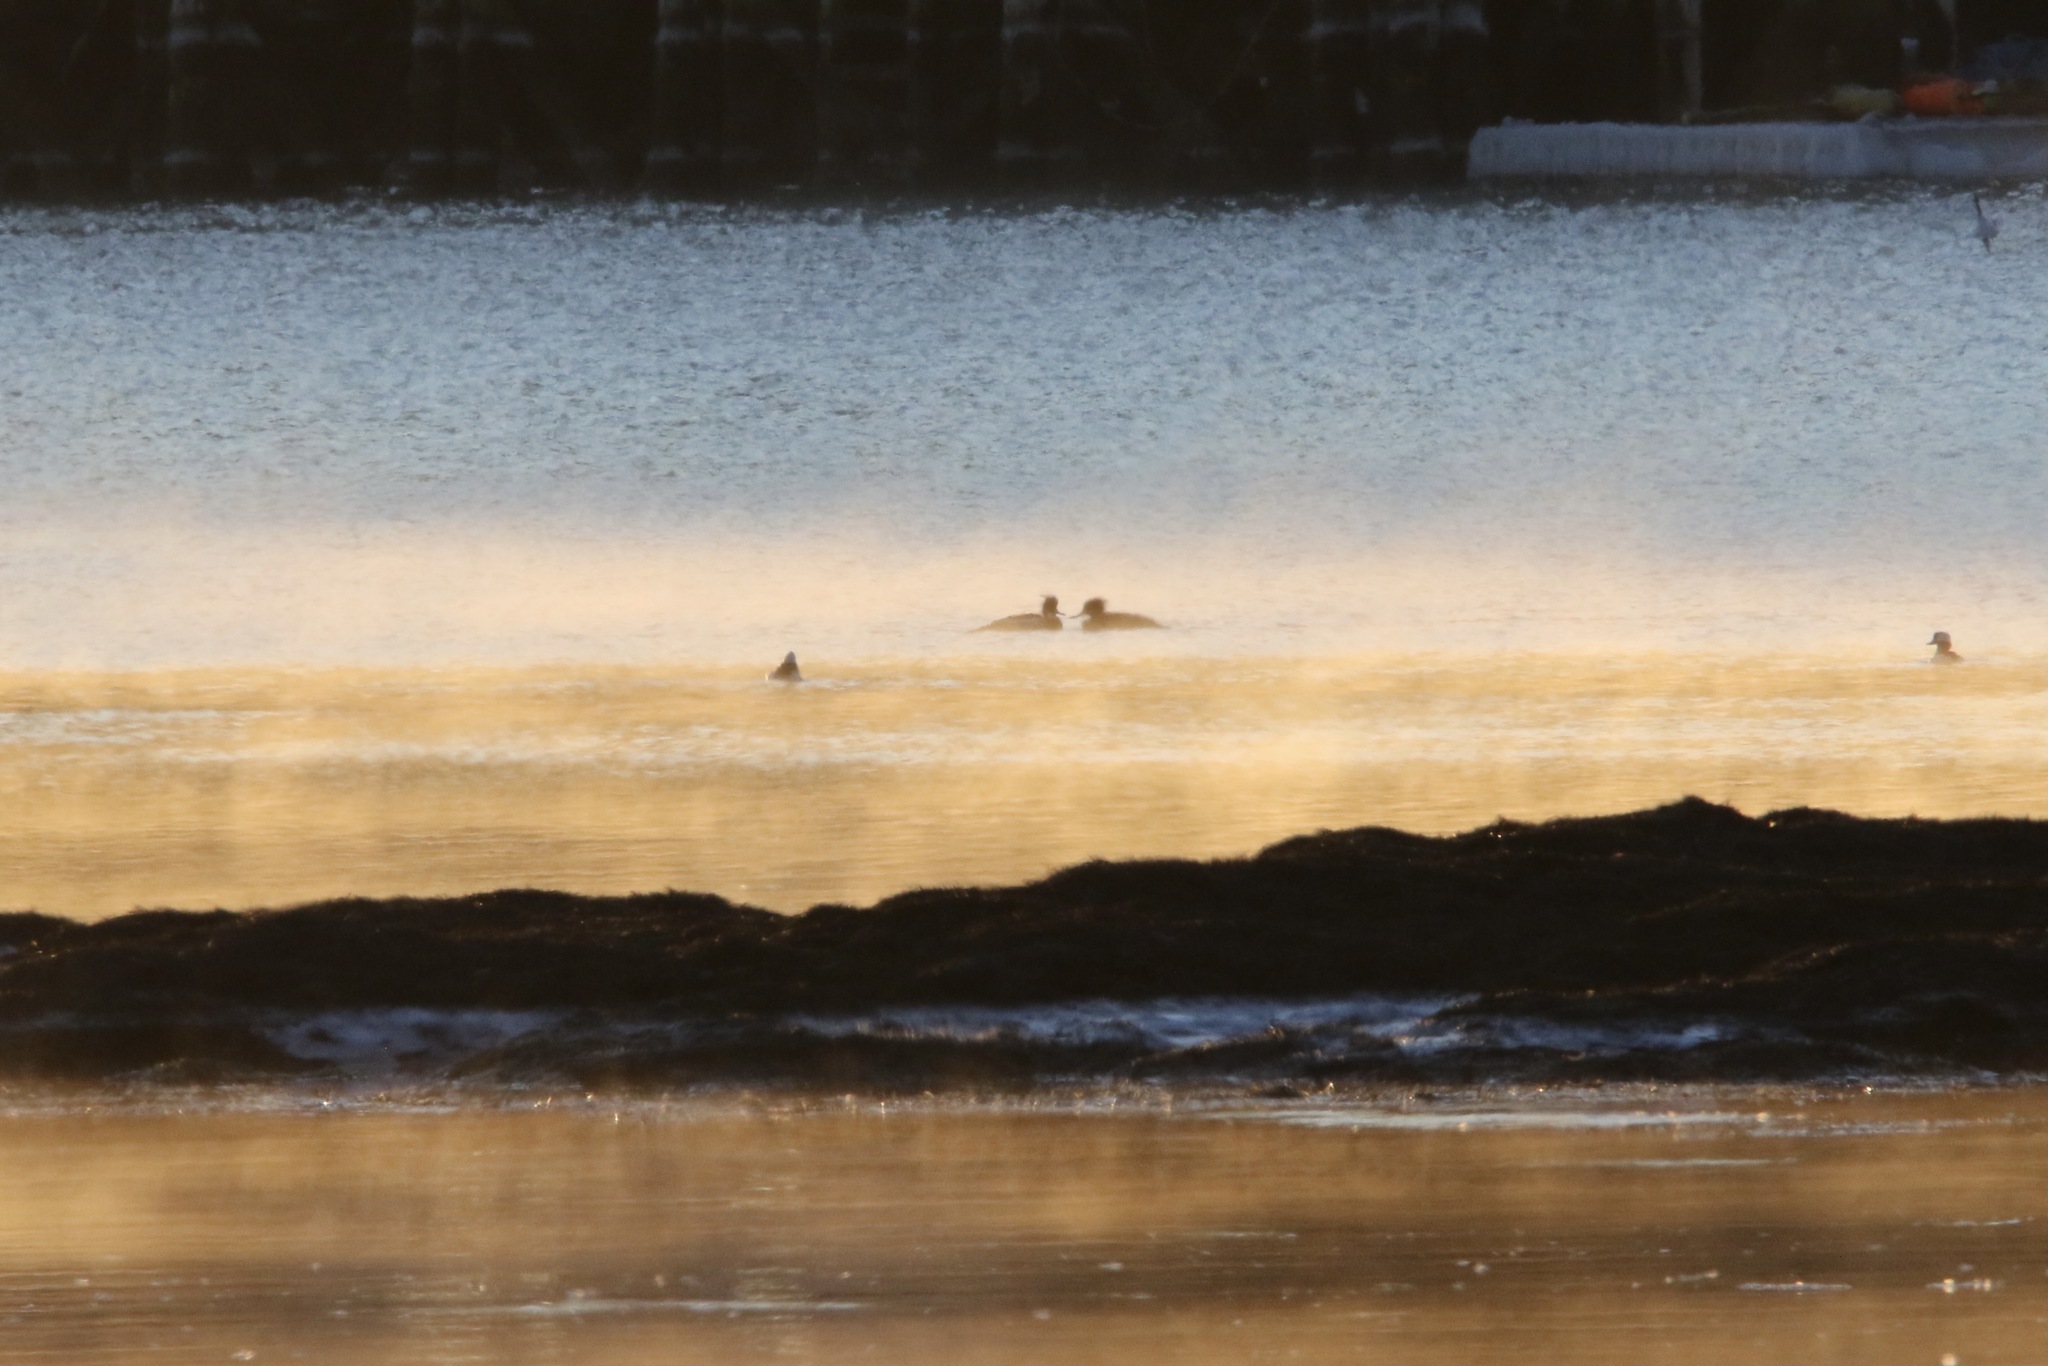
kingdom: Animalia
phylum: Chordata
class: Aves
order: Anseriformes
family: Anatidae
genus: Mergus
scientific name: Mergus serrator
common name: Red-breasted merganser
